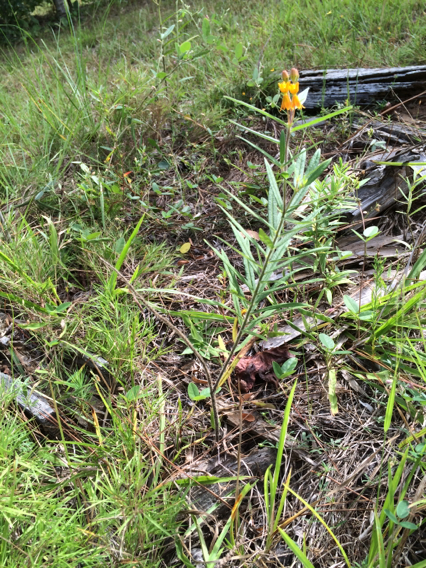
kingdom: Plantae
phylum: Tracheophyta
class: Magnoliopsida
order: Gentianales
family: Apocynaceae
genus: Asclepias
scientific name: Asclepias tuberosa
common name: Butterfly milkweed
